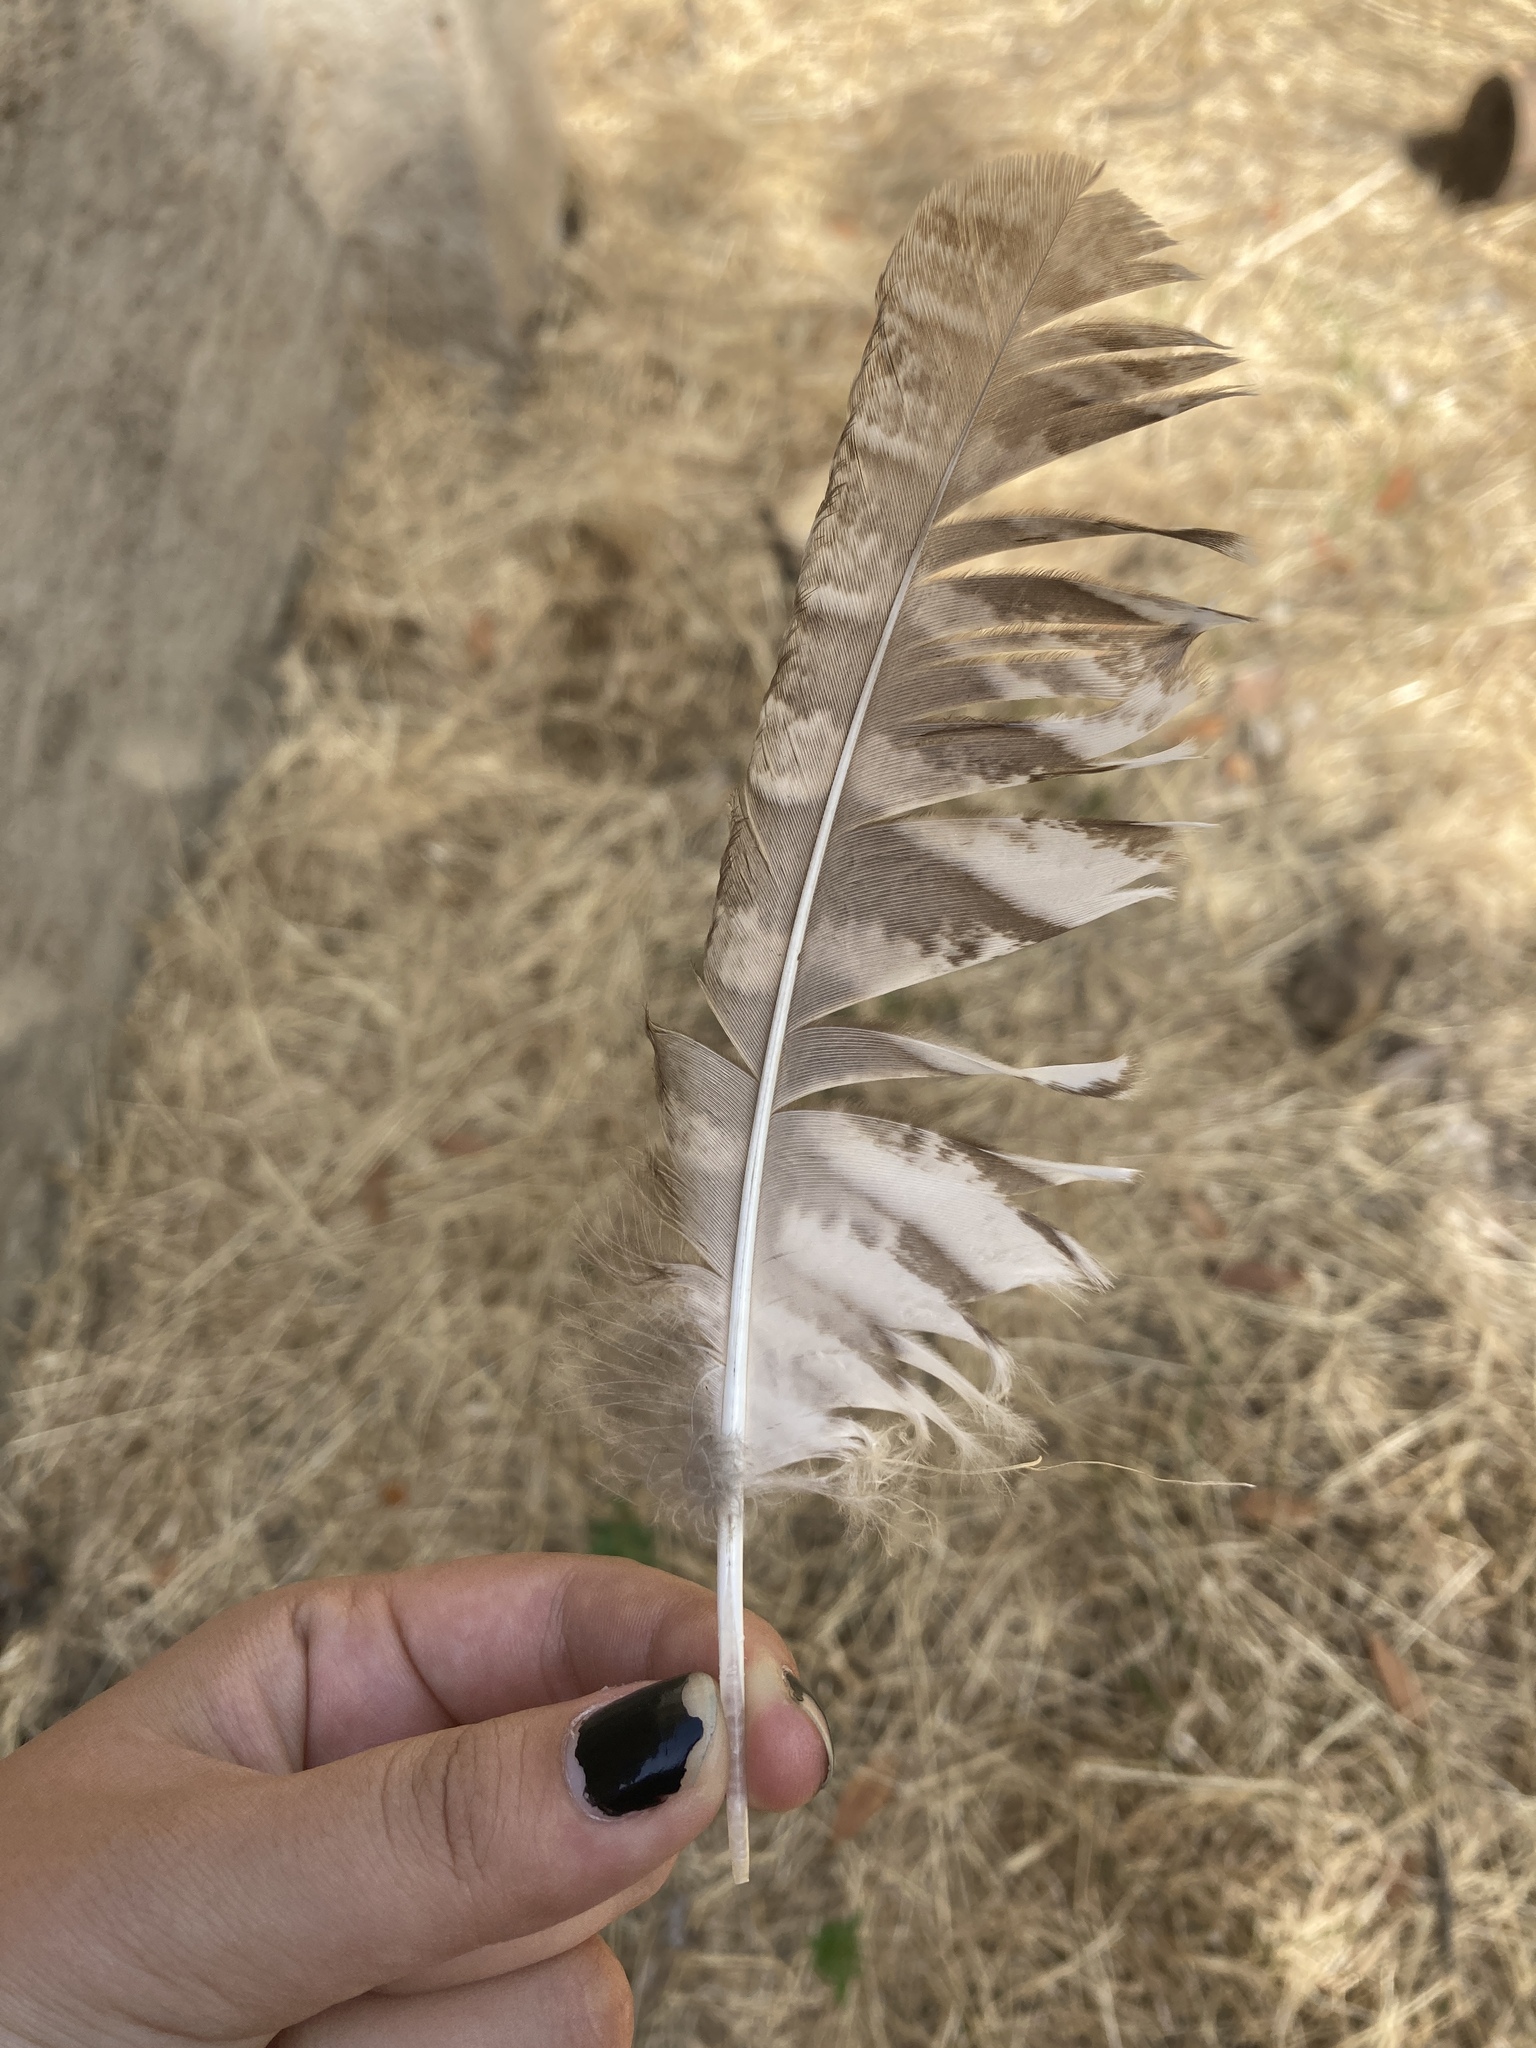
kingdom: Animalia
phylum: Chordata
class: Aves
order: Strigiformes
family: Strigidae
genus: Strix
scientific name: Strix aluco
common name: Tawny owl
